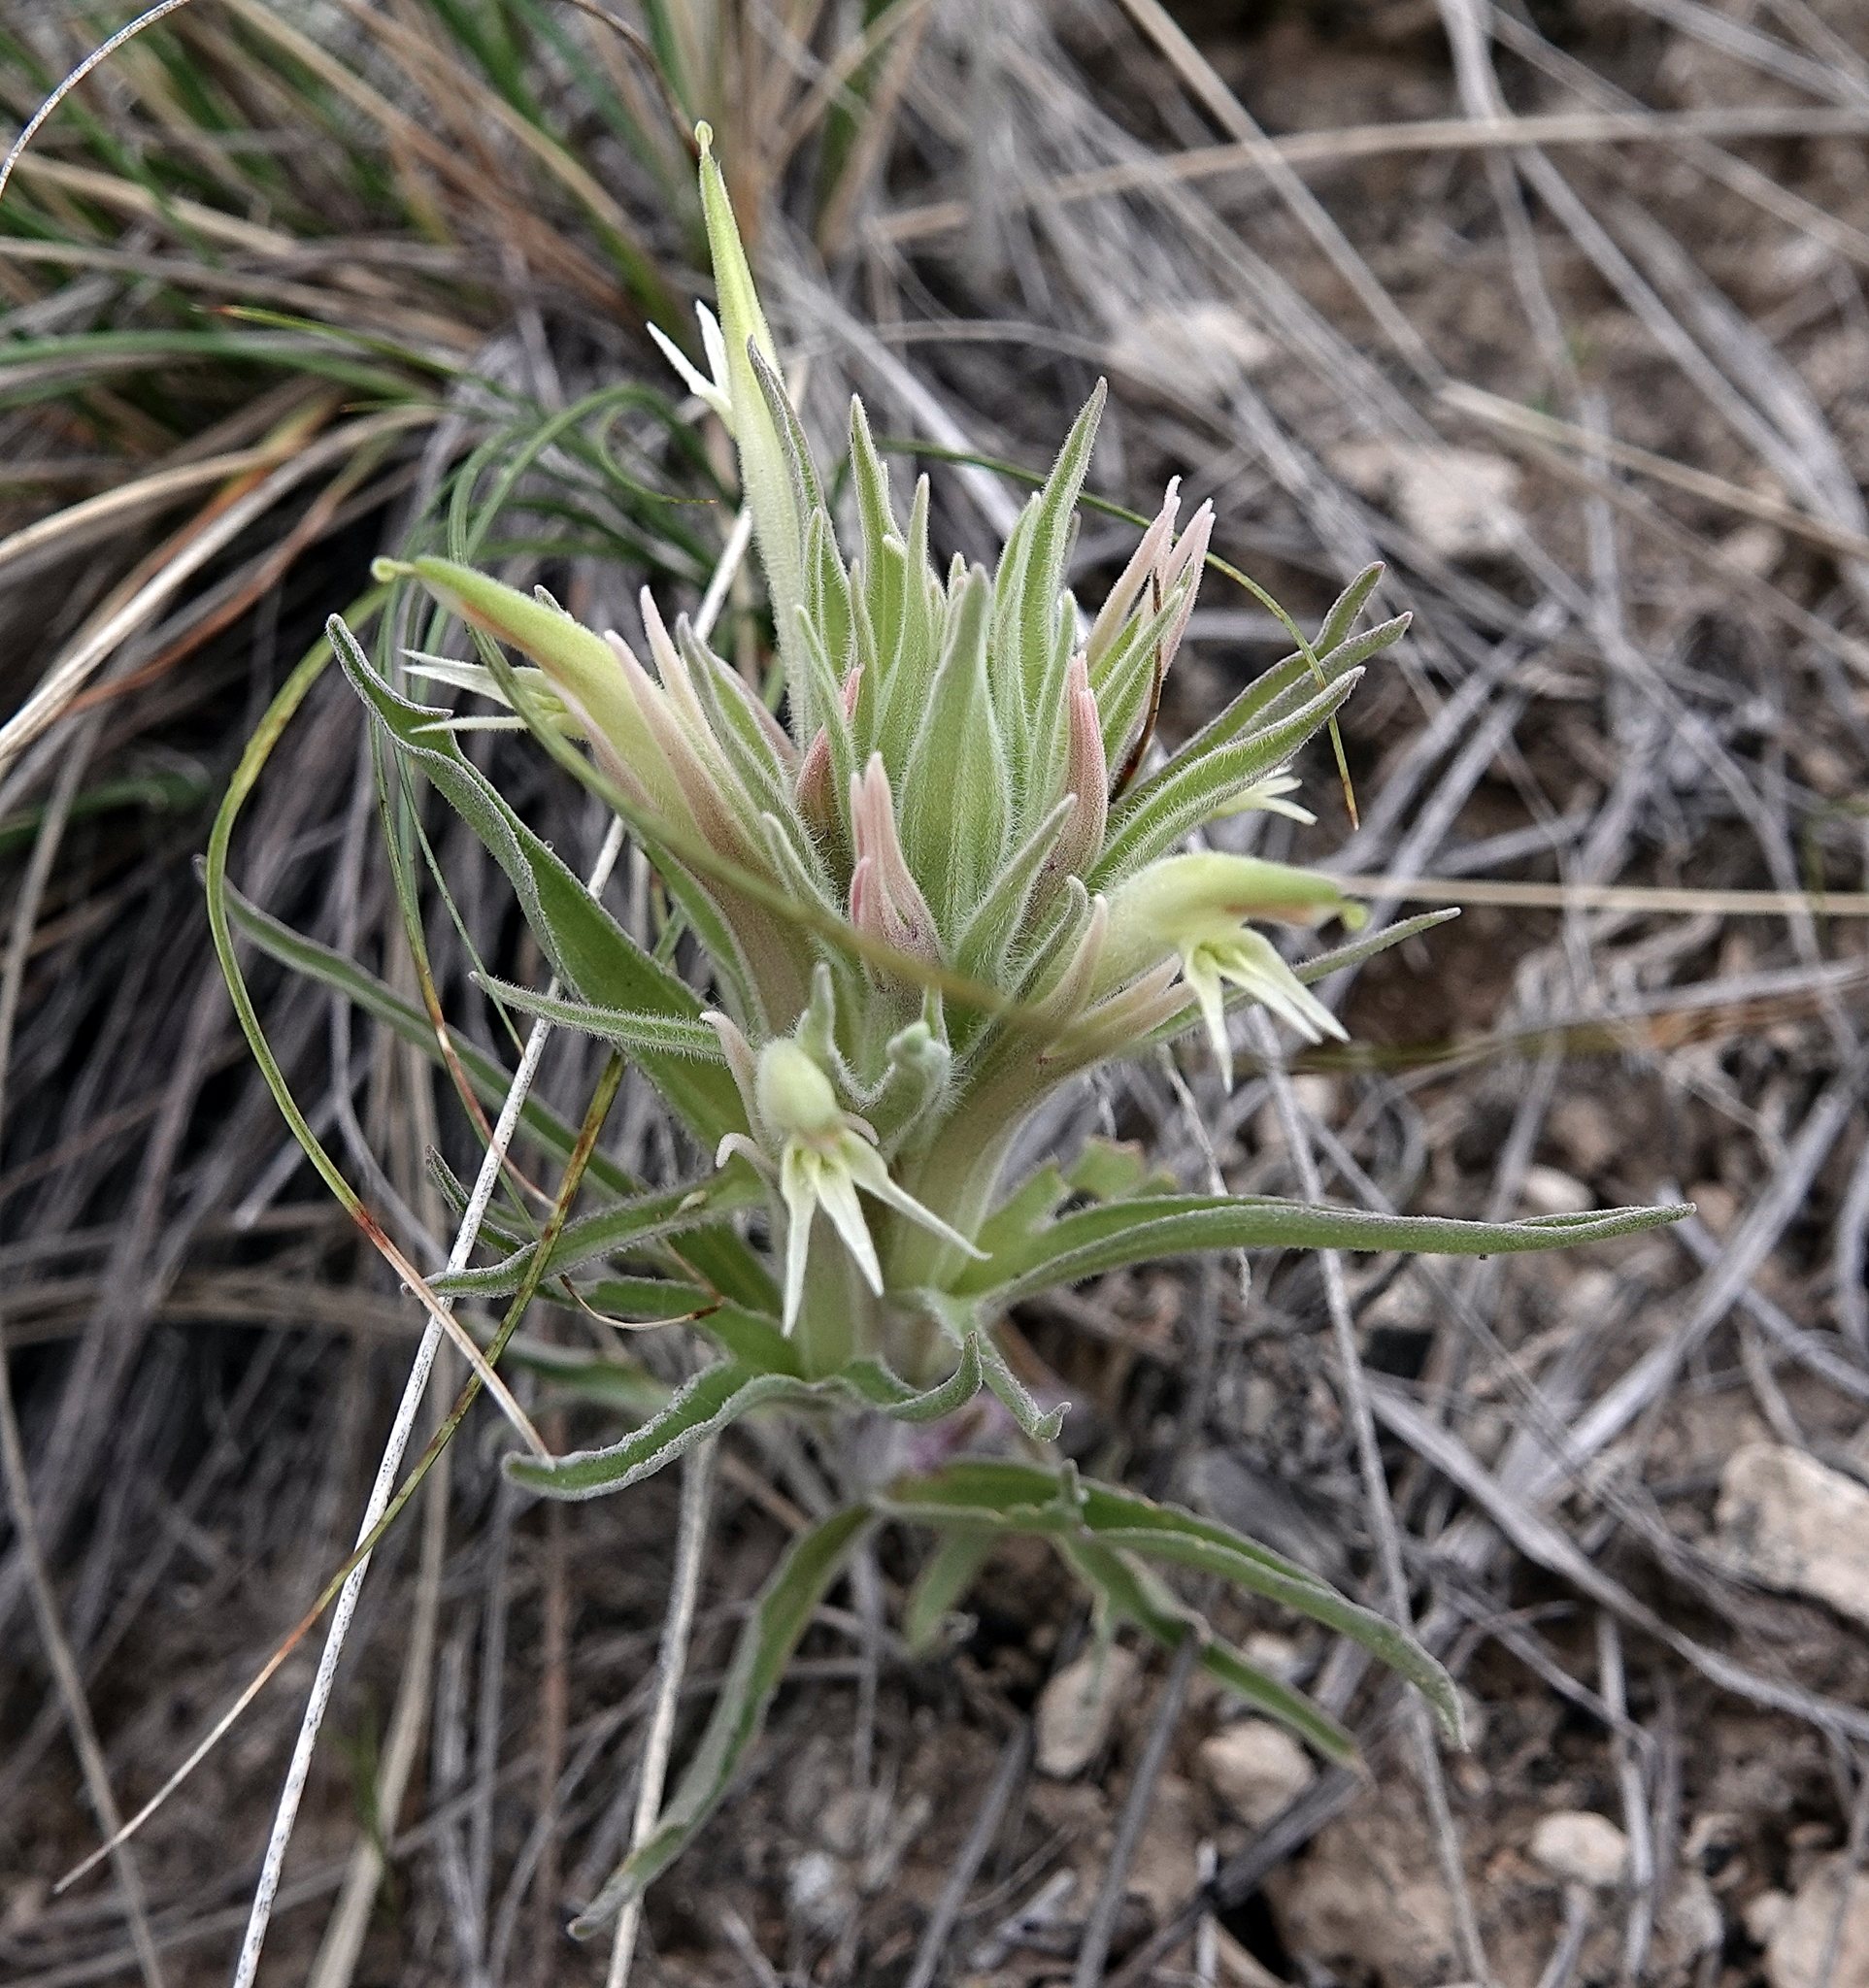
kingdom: Plantae
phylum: Tracheophyta
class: Magnoliopsida
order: Lamiales
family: Orobanchaceae
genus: Castilleja
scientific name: Castilleja sessiliflora
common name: Downy paintbrush
